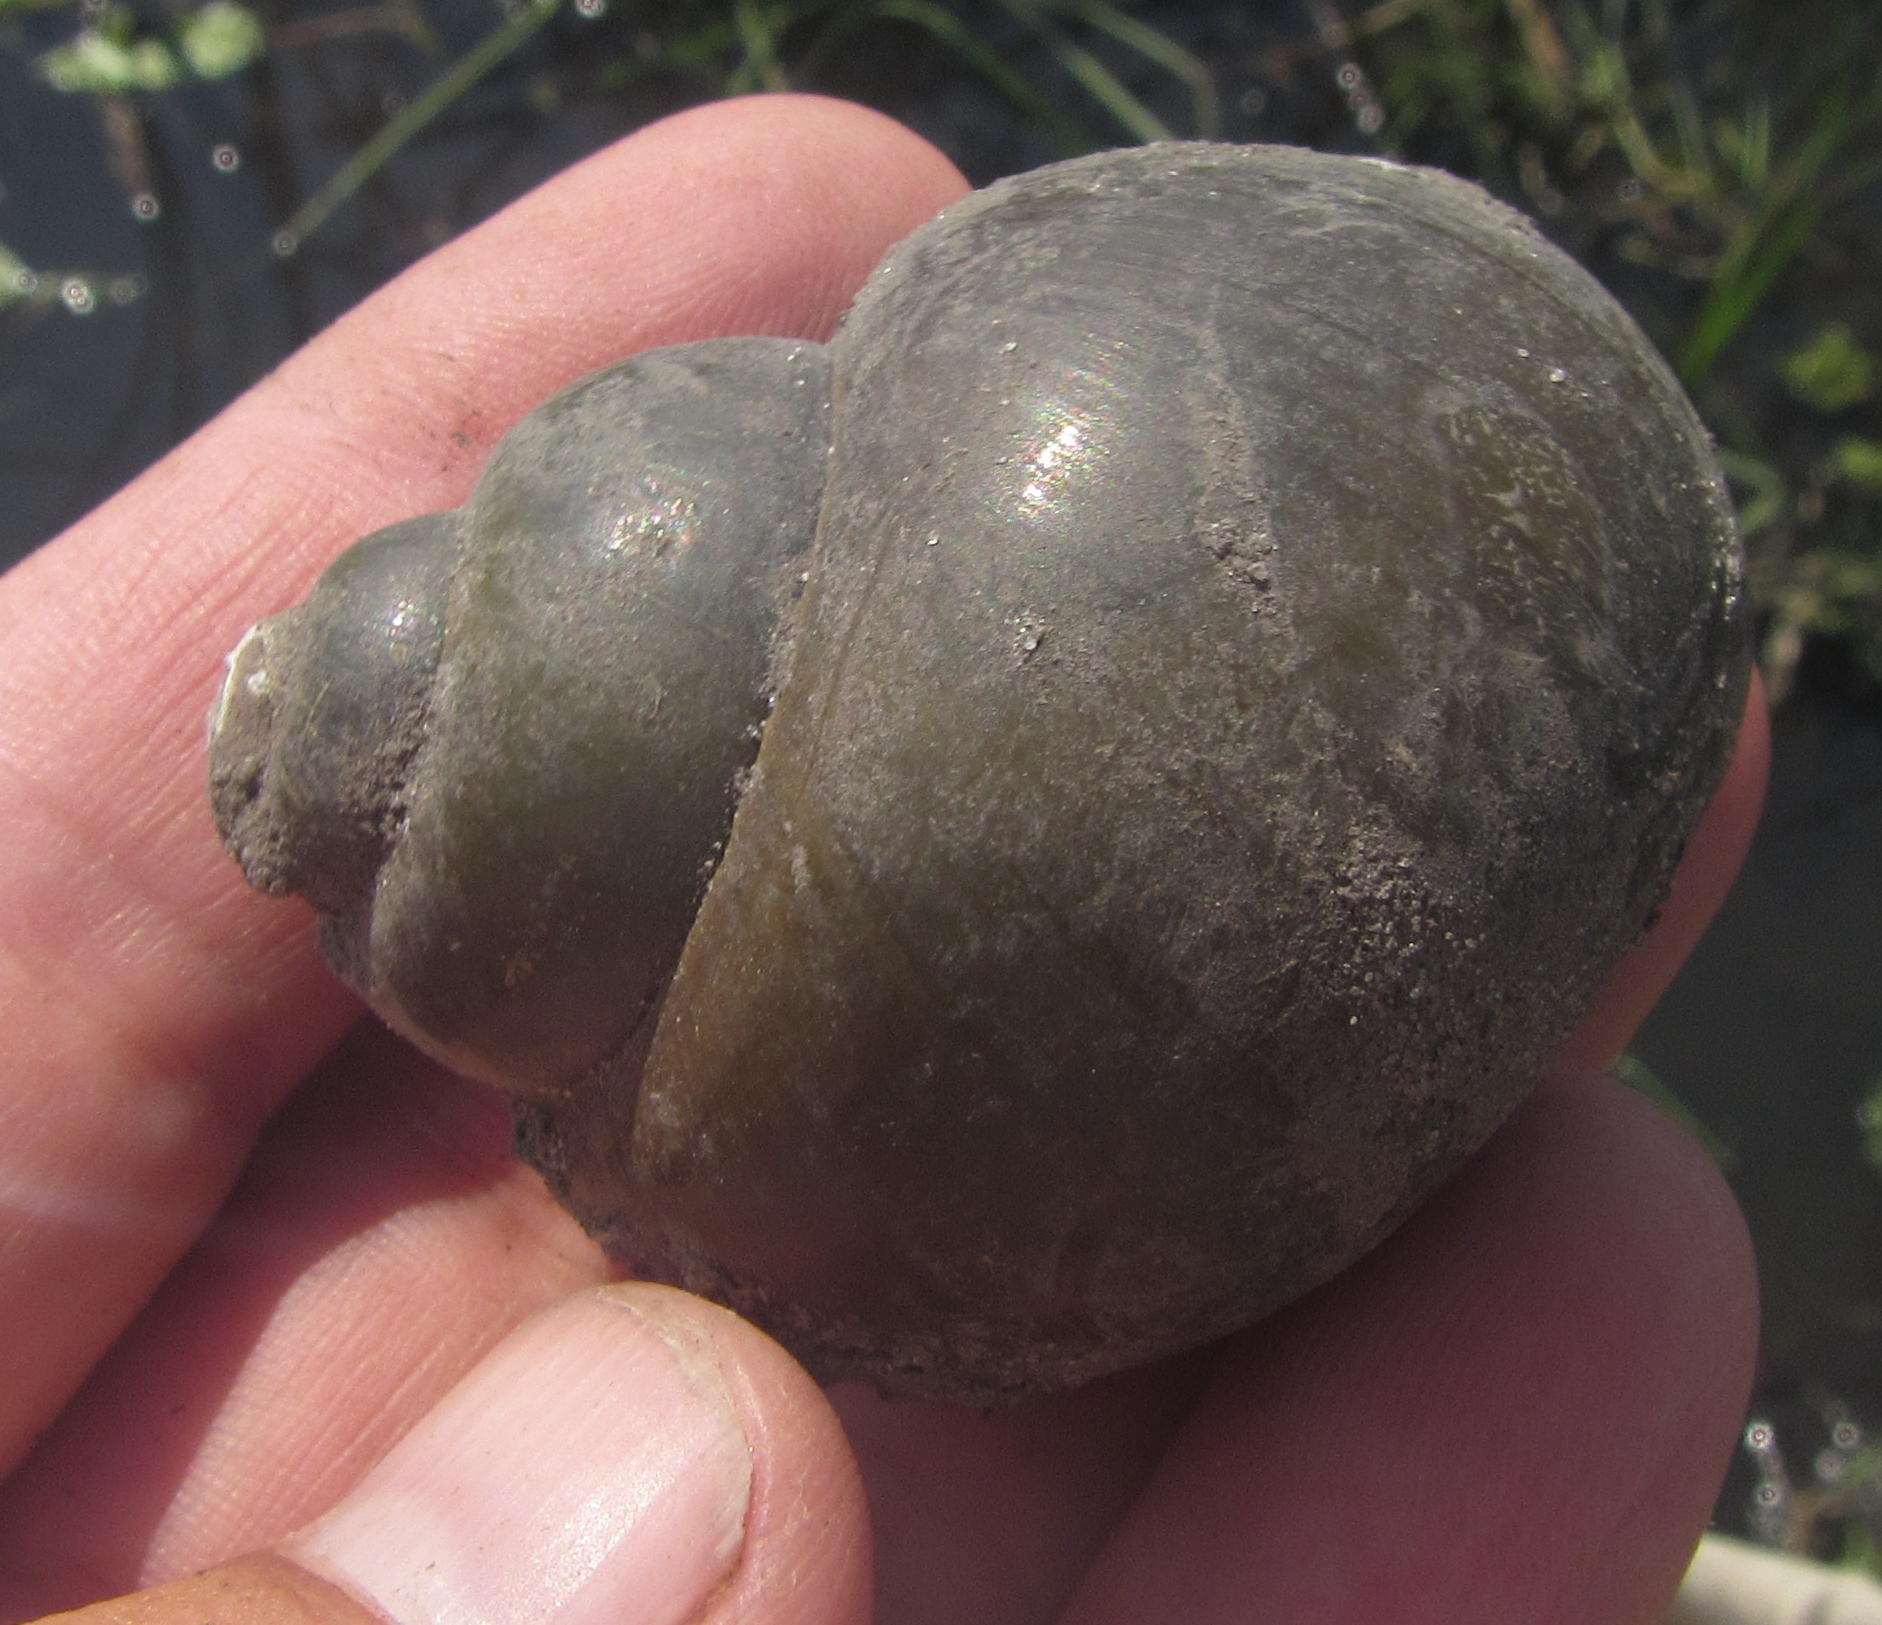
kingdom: Animalia
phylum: Mollusca
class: Gastropoda
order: Architaenioglossa
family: Ampullariidae
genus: Lanistes
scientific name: Lanistes ovum
